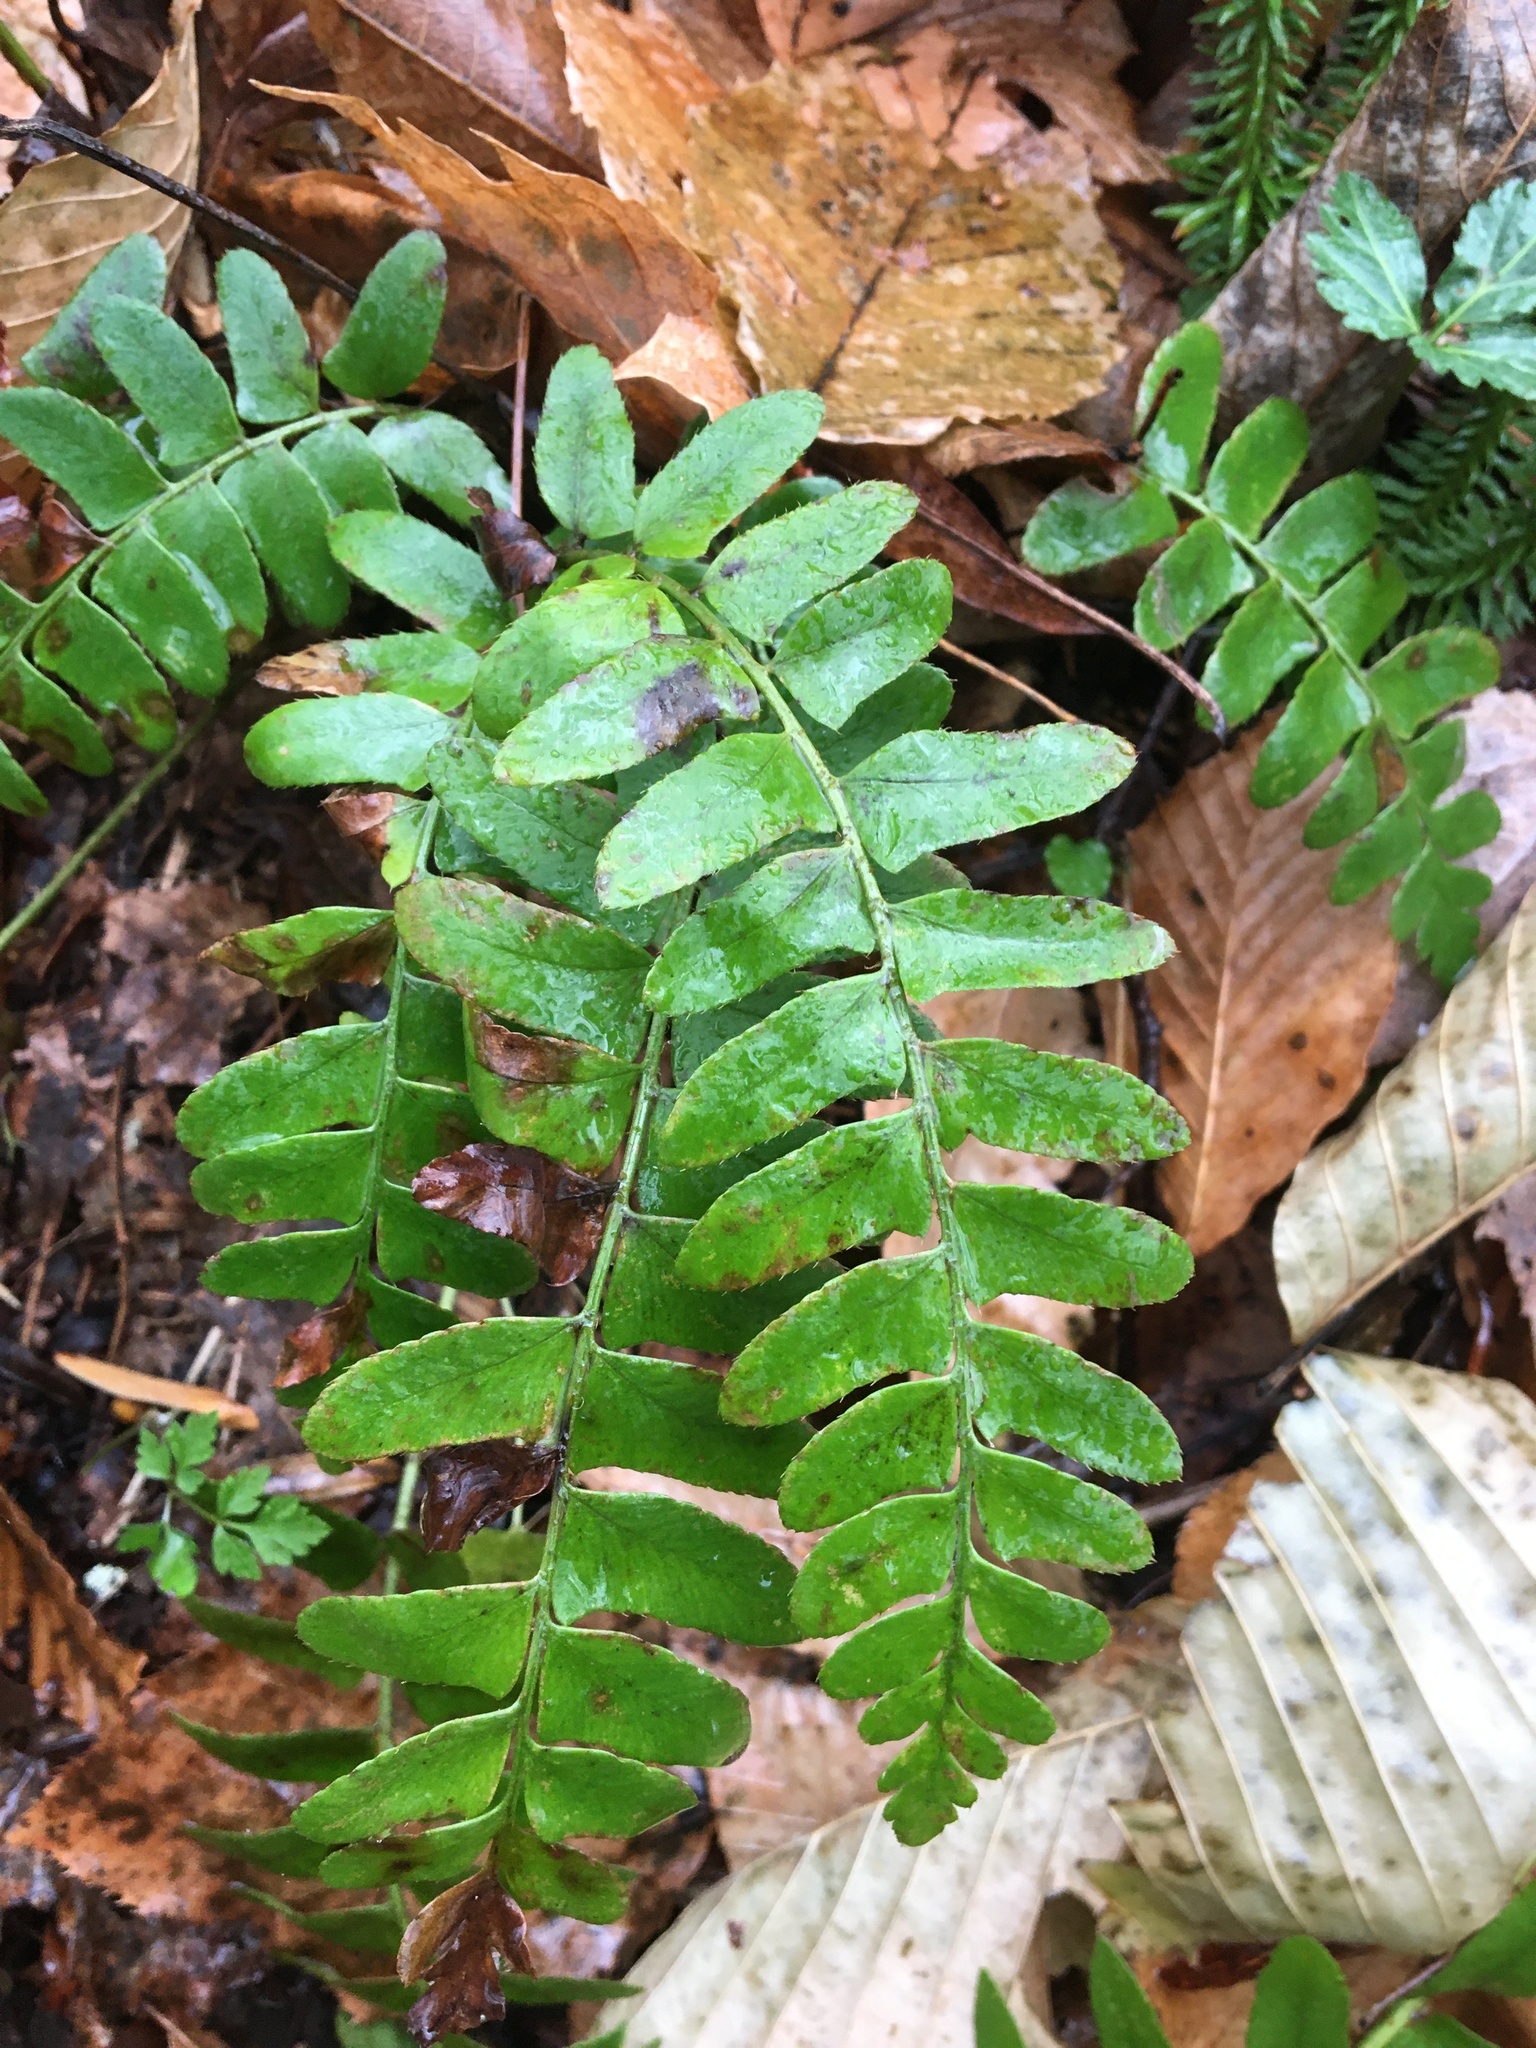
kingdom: Plantae
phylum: Tracheophyta
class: Polypodiopsida
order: Polypodiales
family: Dryopteridaceae
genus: Polystichum
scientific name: Polystichum acrostichoides
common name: Christmas fern
